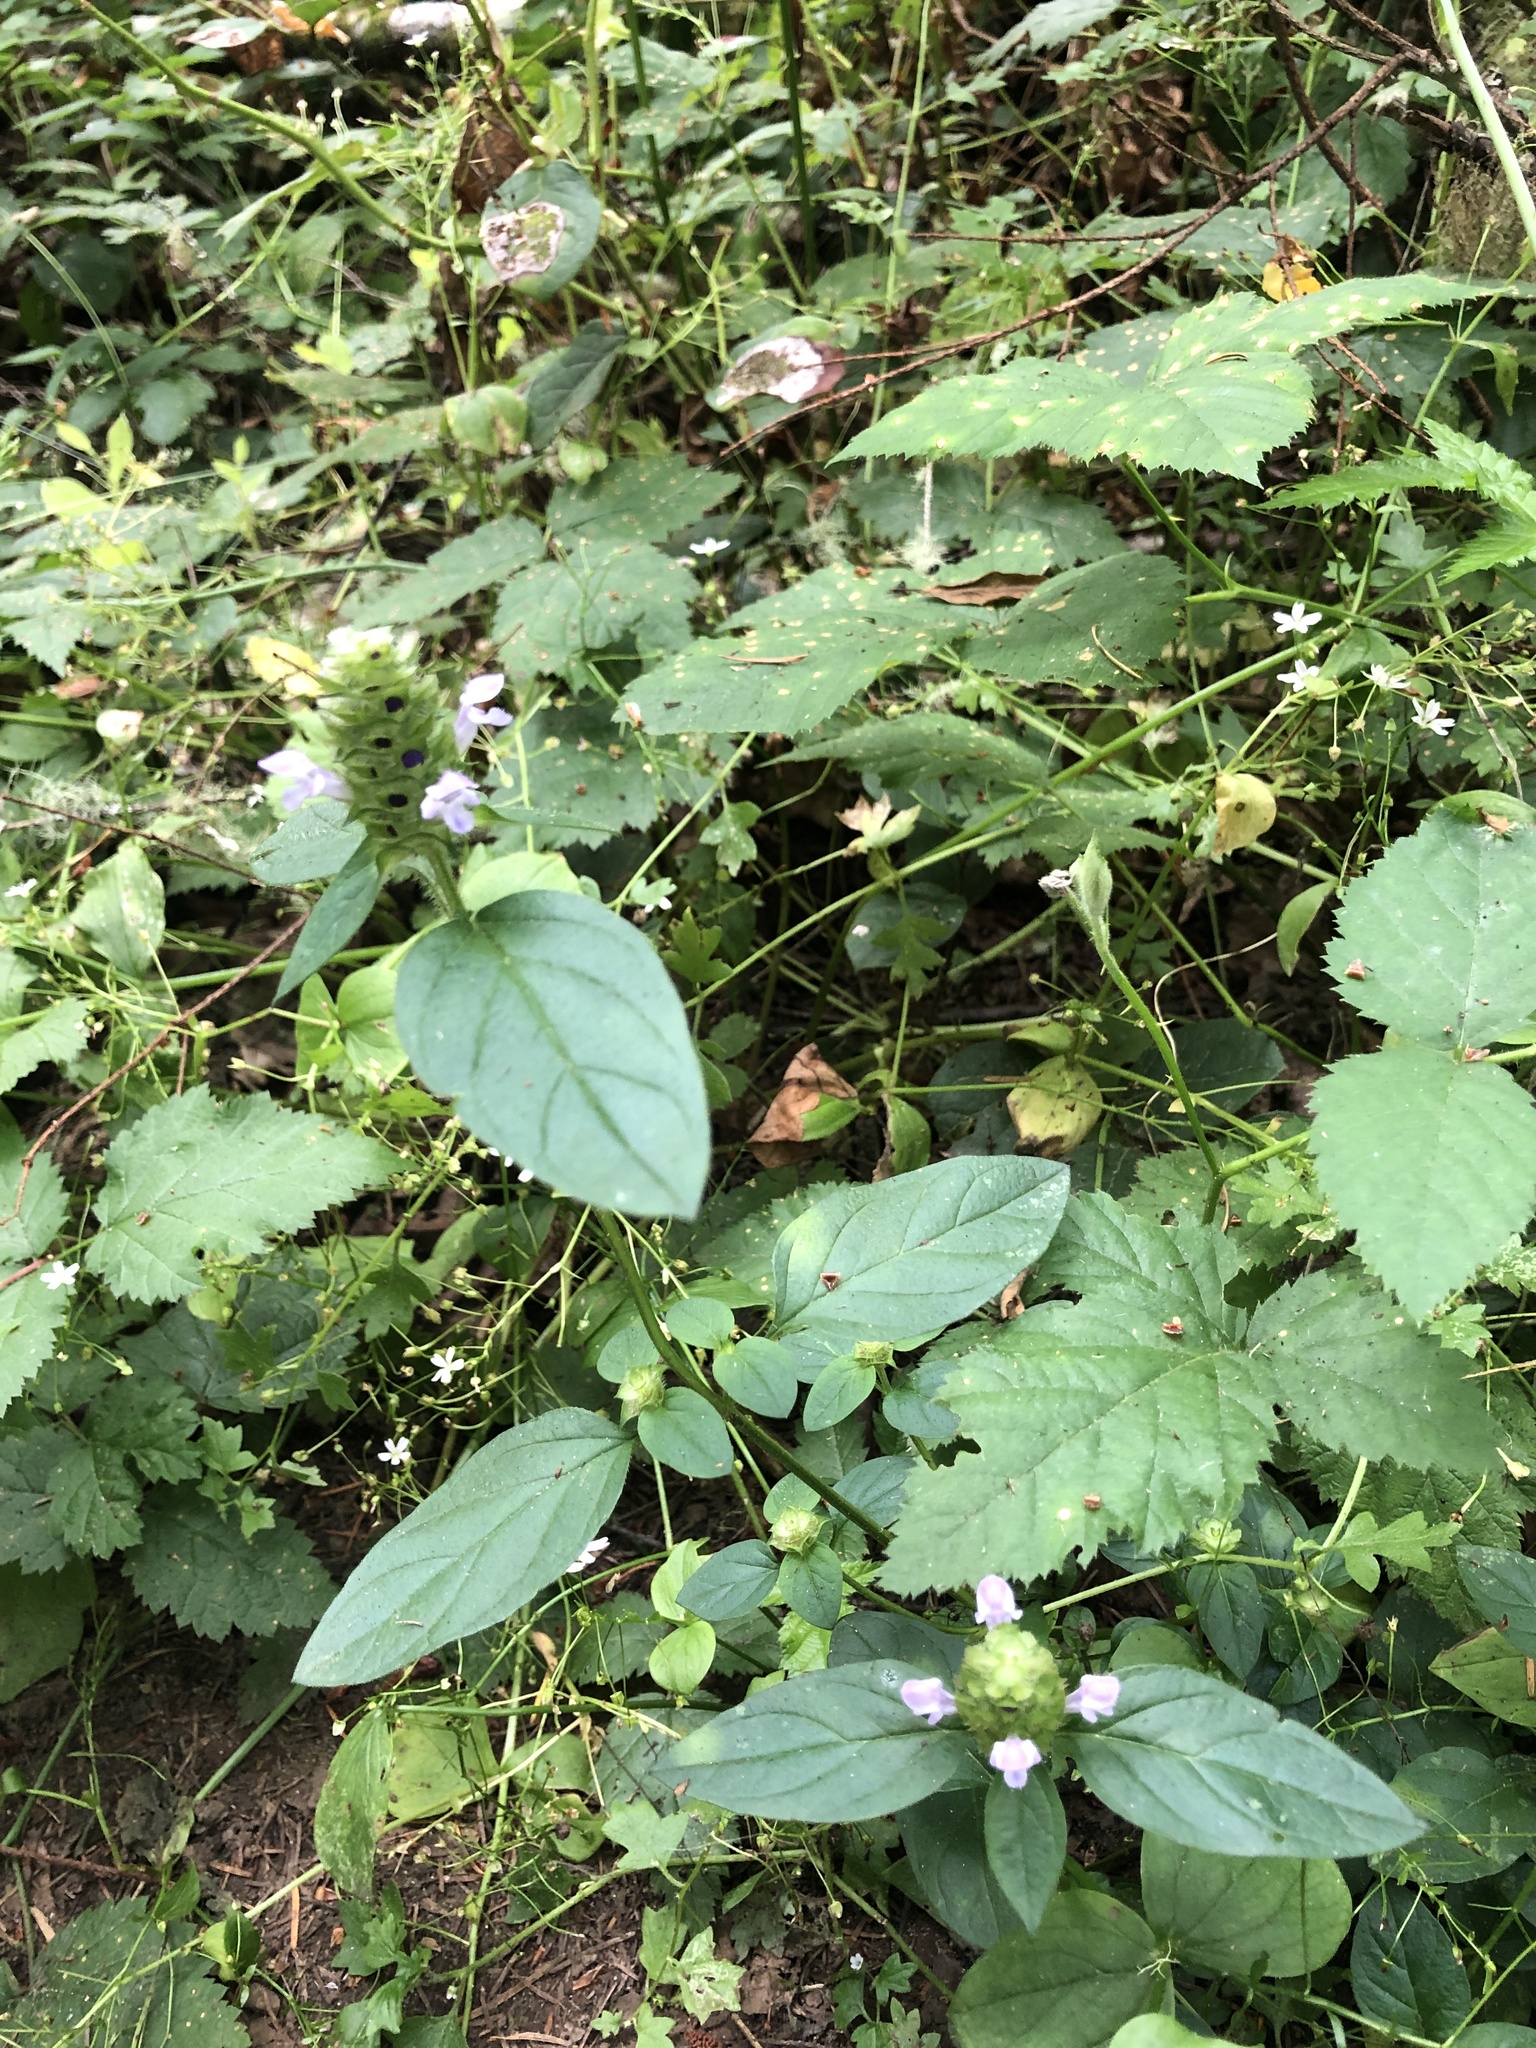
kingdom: Plantae
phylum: Tracheophyta
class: Magnoliopsida
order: Lamiales
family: Lamiaceae
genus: Prunella
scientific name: Prunella vulgaris
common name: Heal-all
